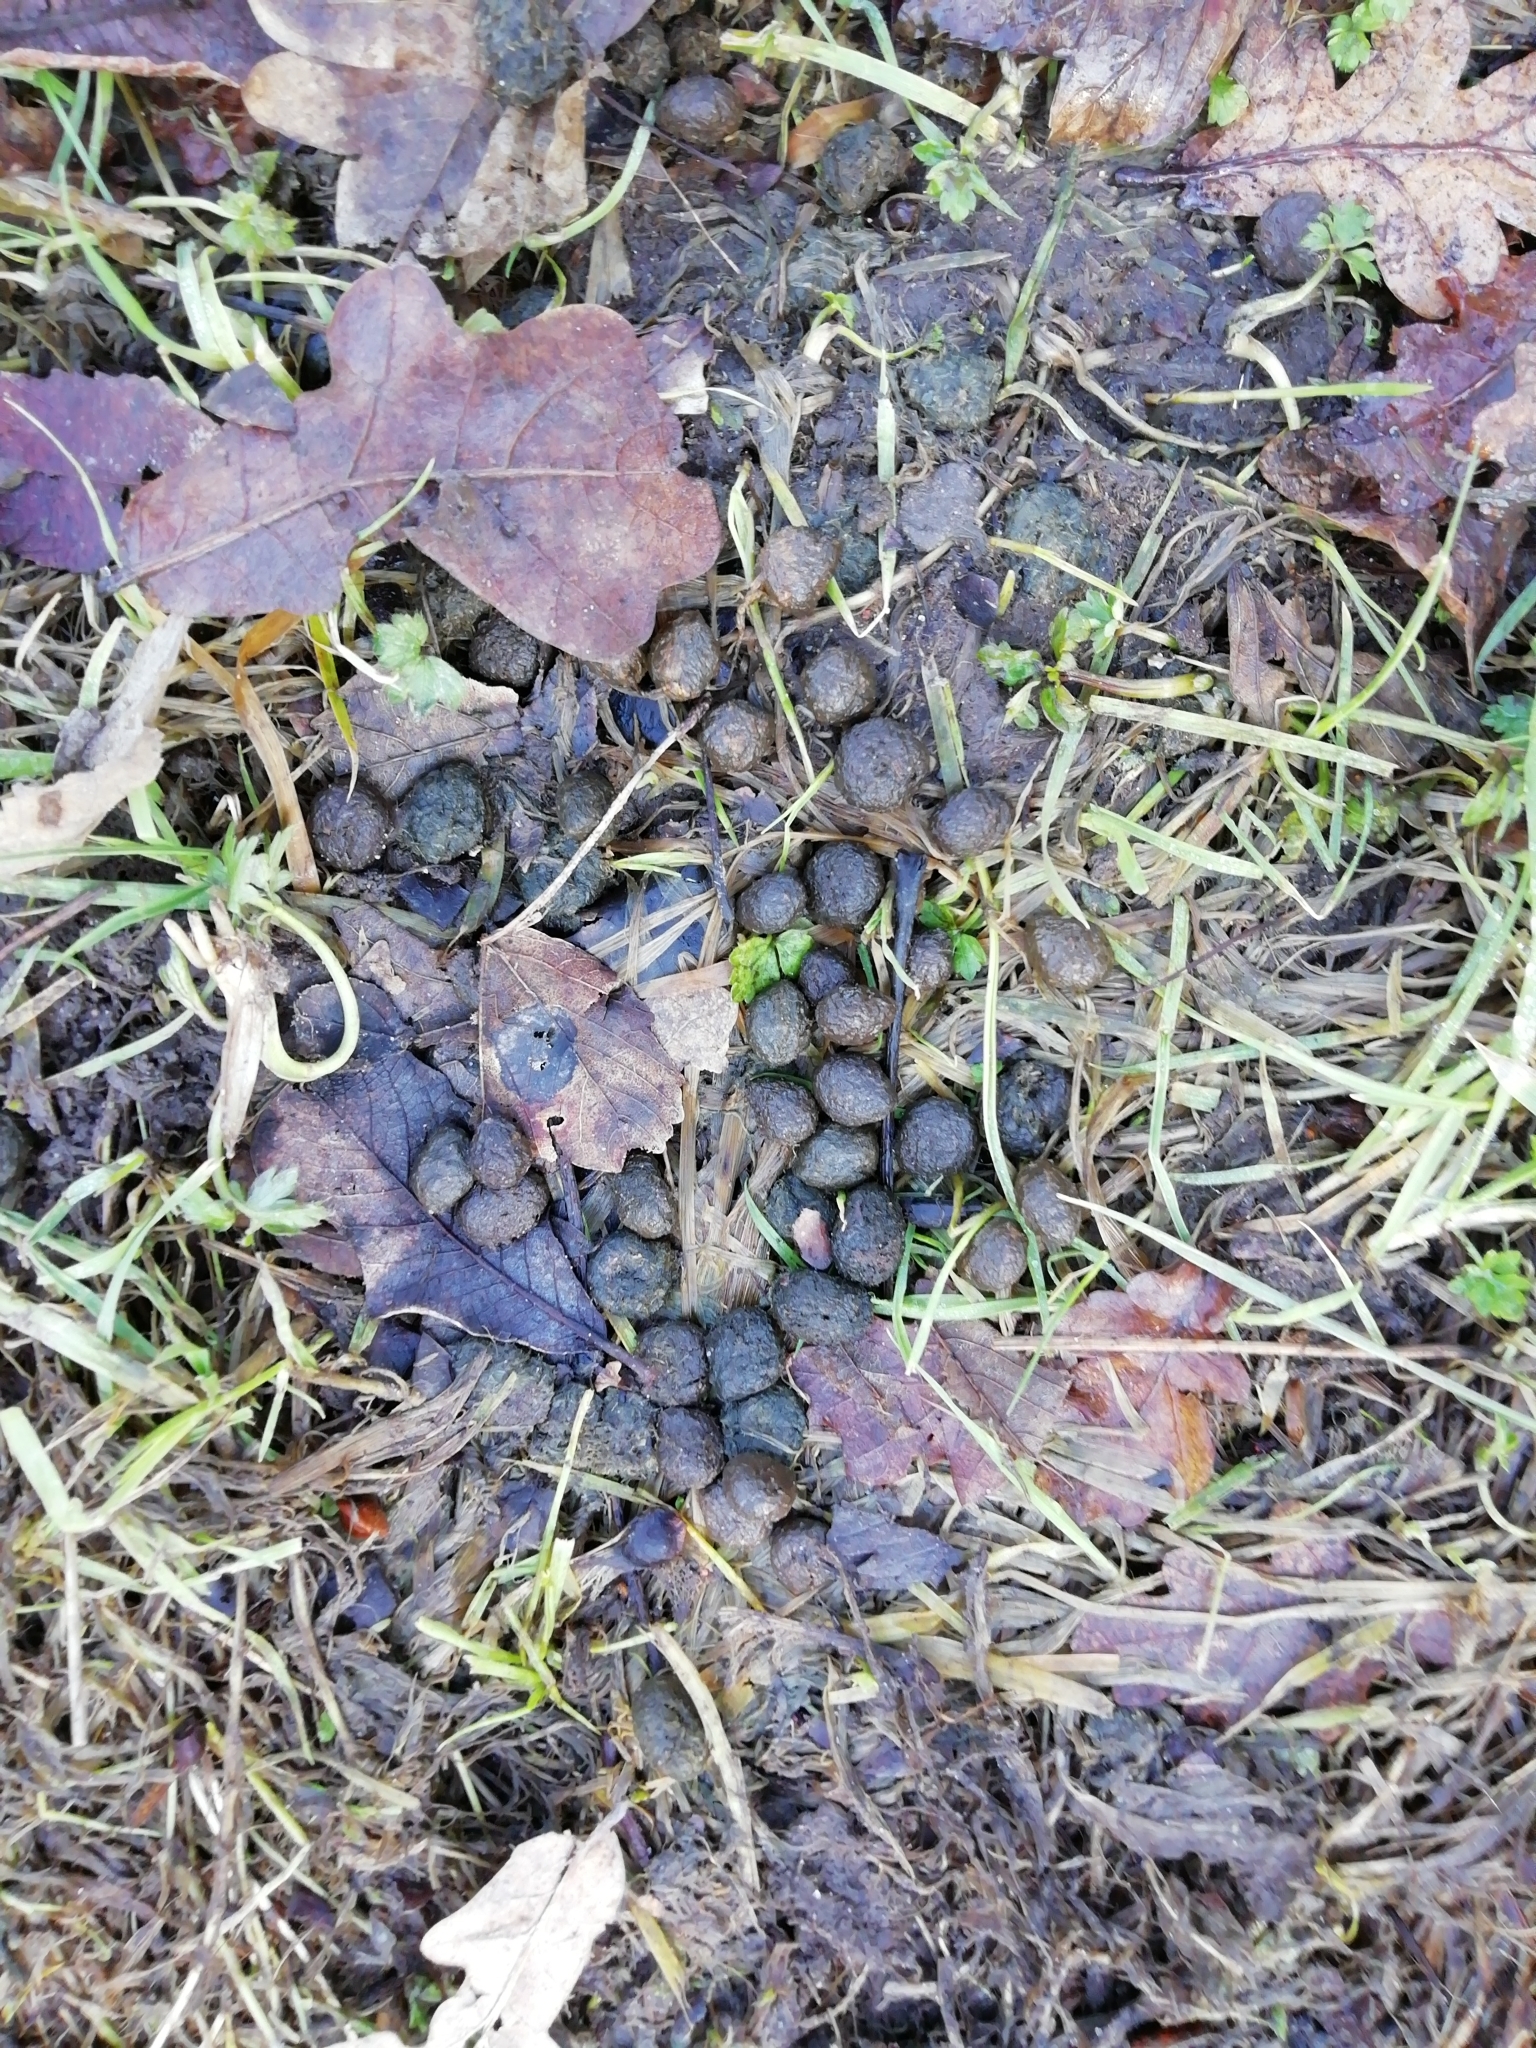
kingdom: Animalia
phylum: Chordata
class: Mammalia
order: Lagomorpha
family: Leporidae
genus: Oryctolagus
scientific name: Oryctolagus cuniculus
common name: European rabbit
